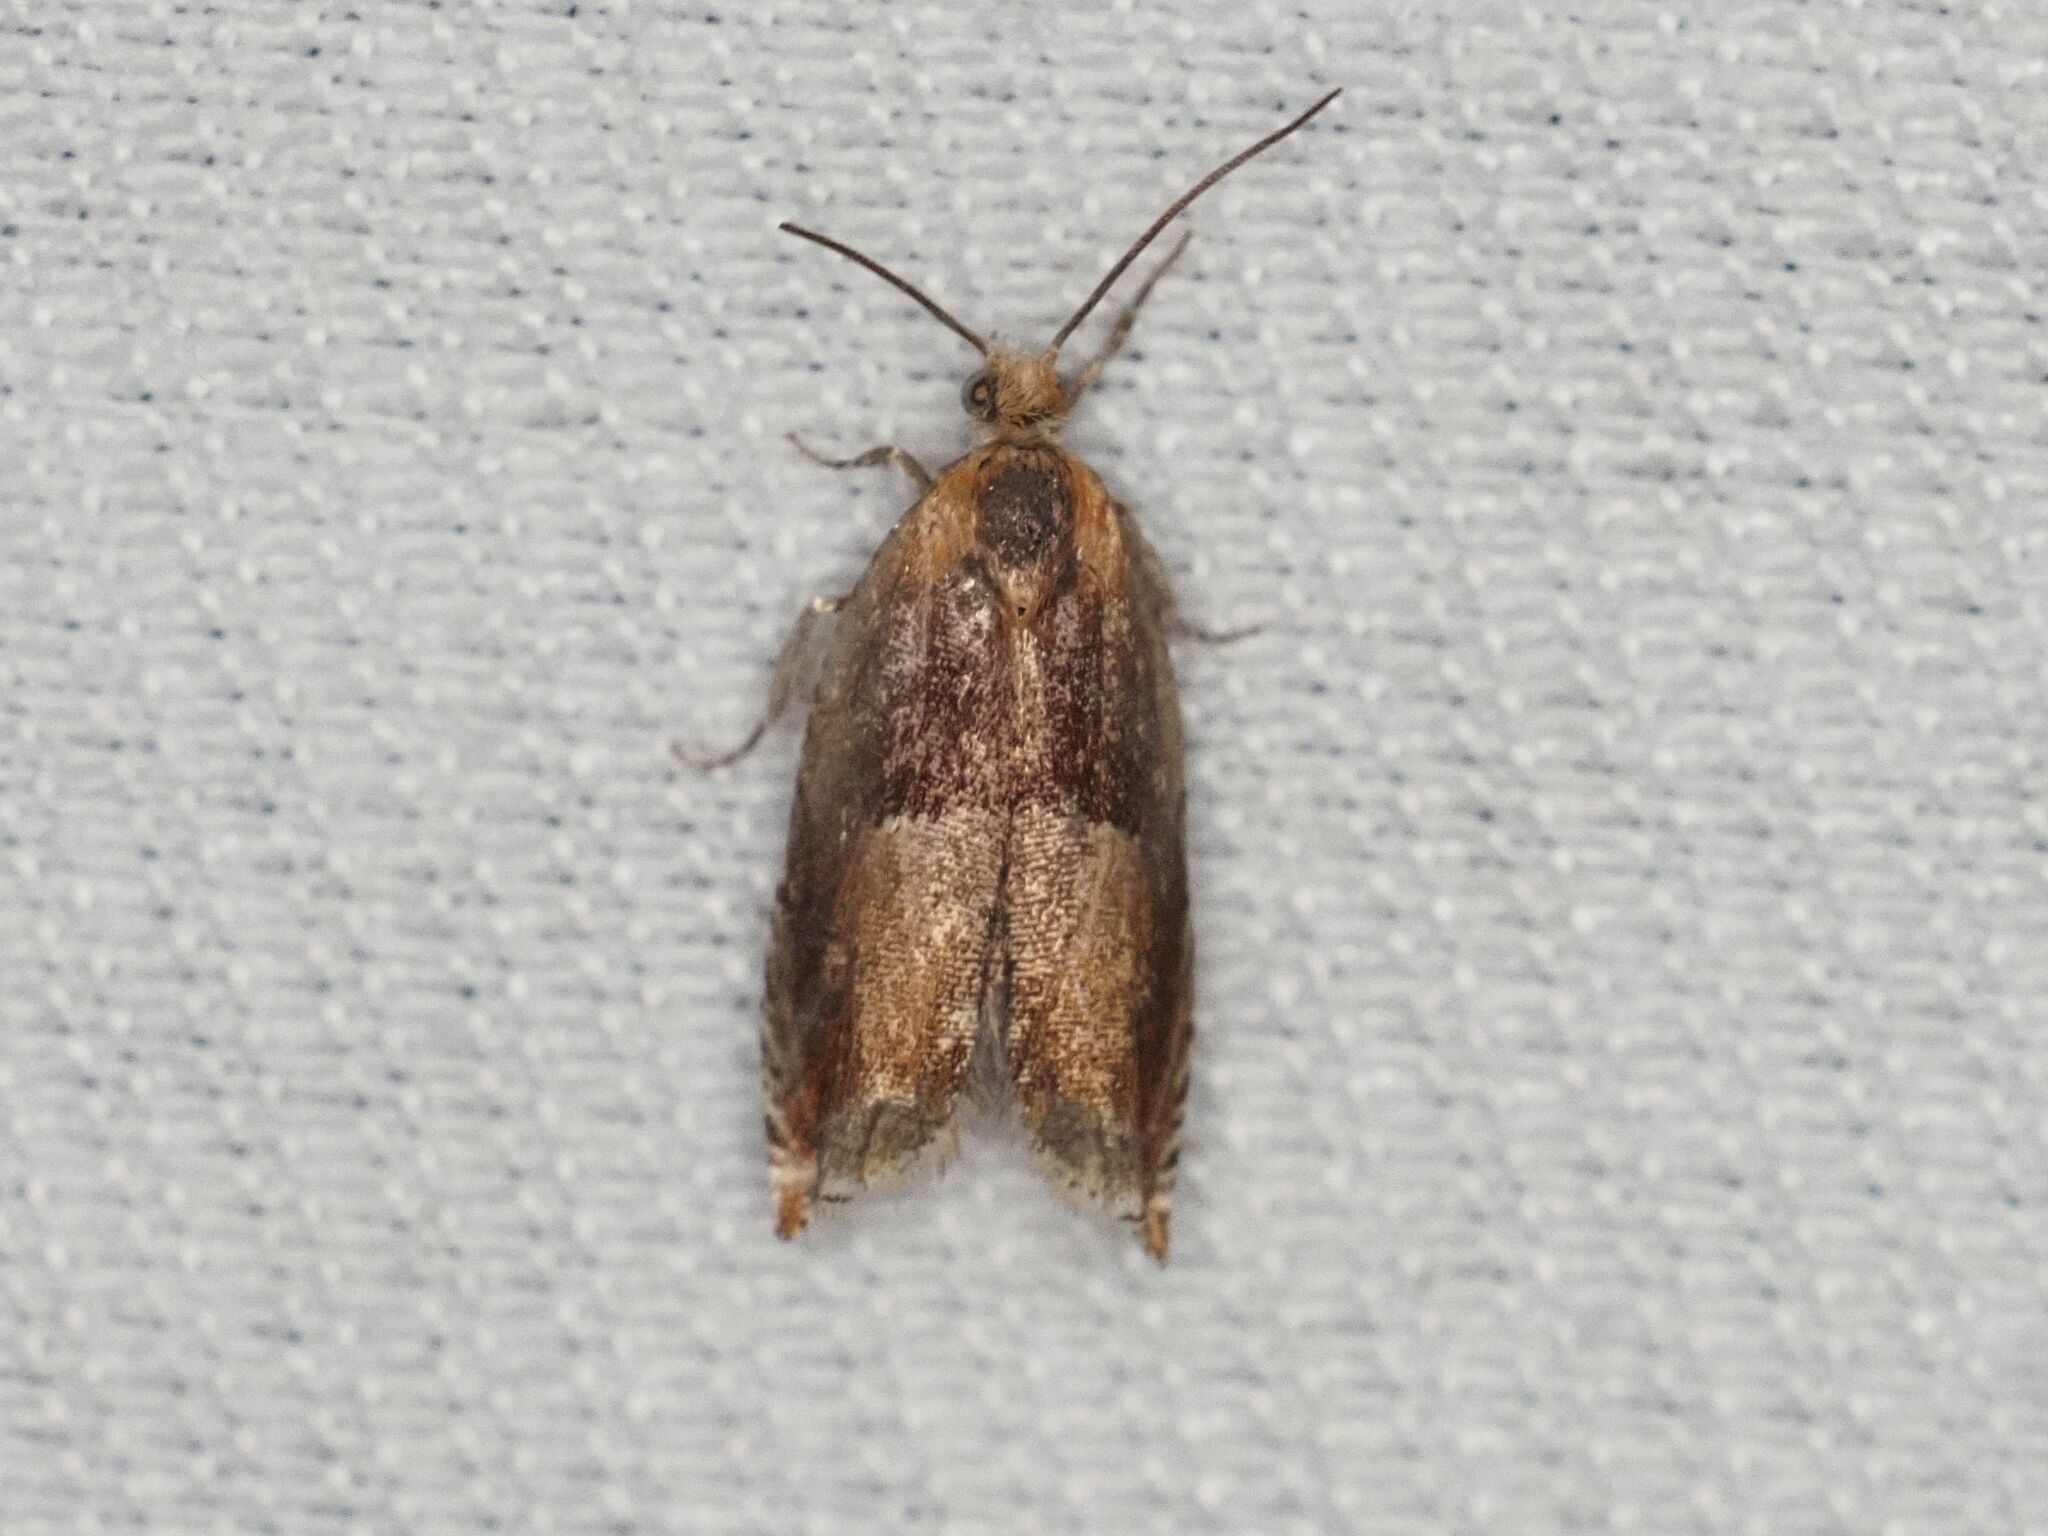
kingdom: Animalia
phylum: Arthropoda
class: Insecta
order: Lepidoptera
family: Tortricidae
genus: Ancylis
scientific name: Ancylis mitterbacheriana
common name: Red roller
